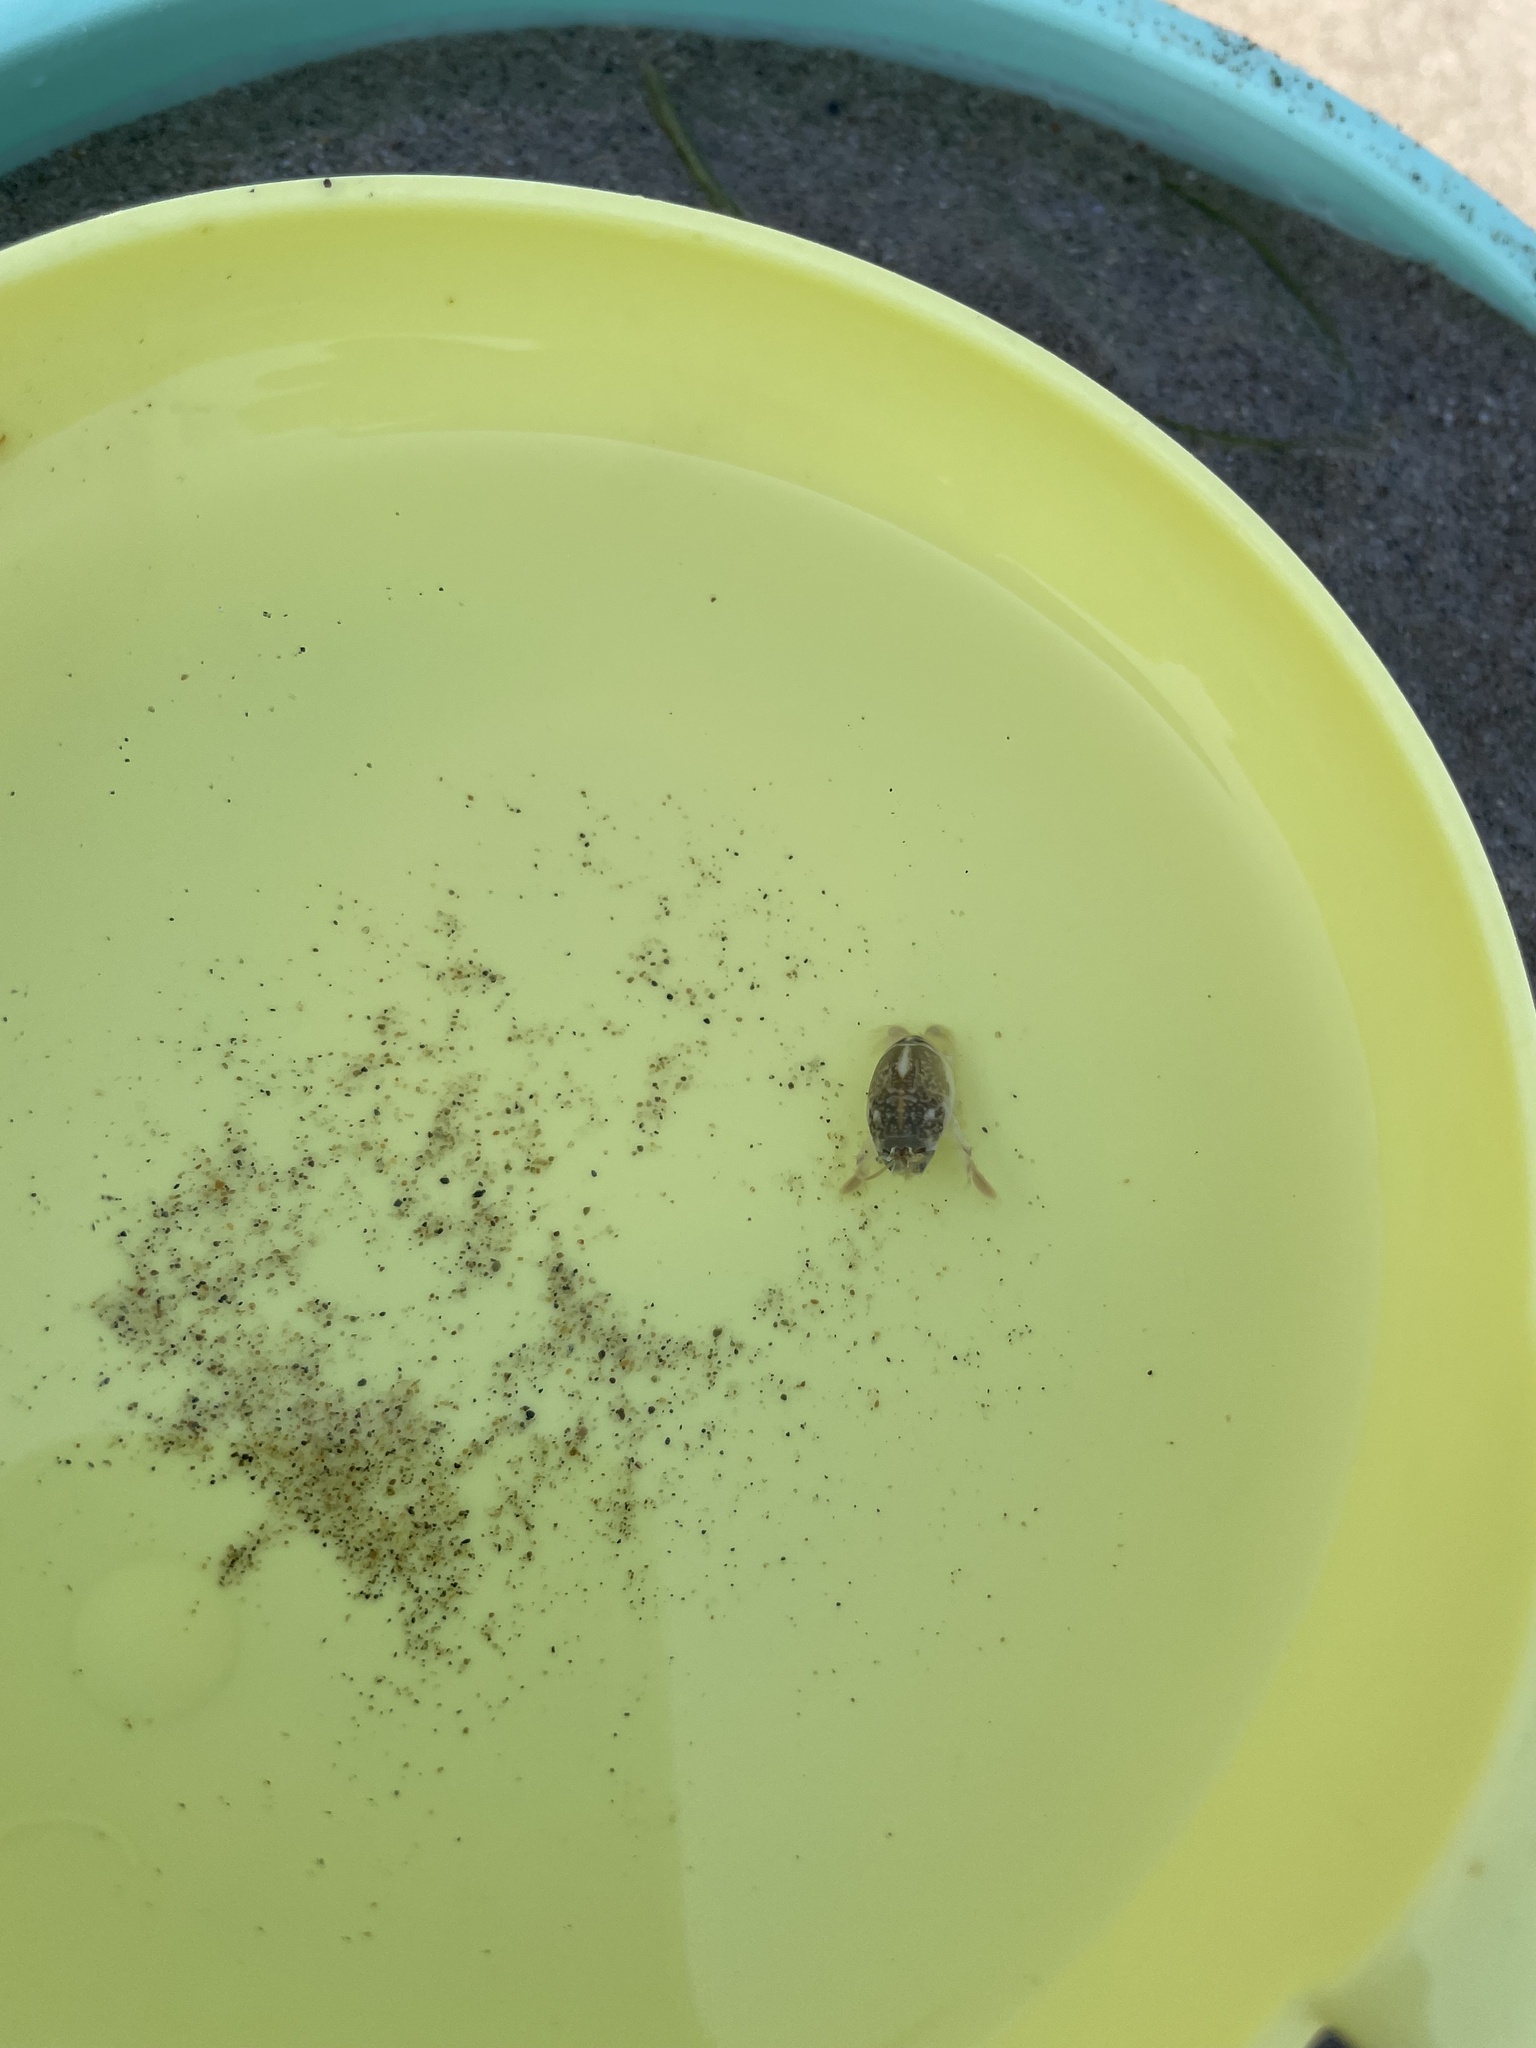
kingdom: Animalia
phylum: Arthropoda
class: Malacostraca
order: Decapoda
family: Hippidae
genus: Emerita
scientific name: Emerita analoga
